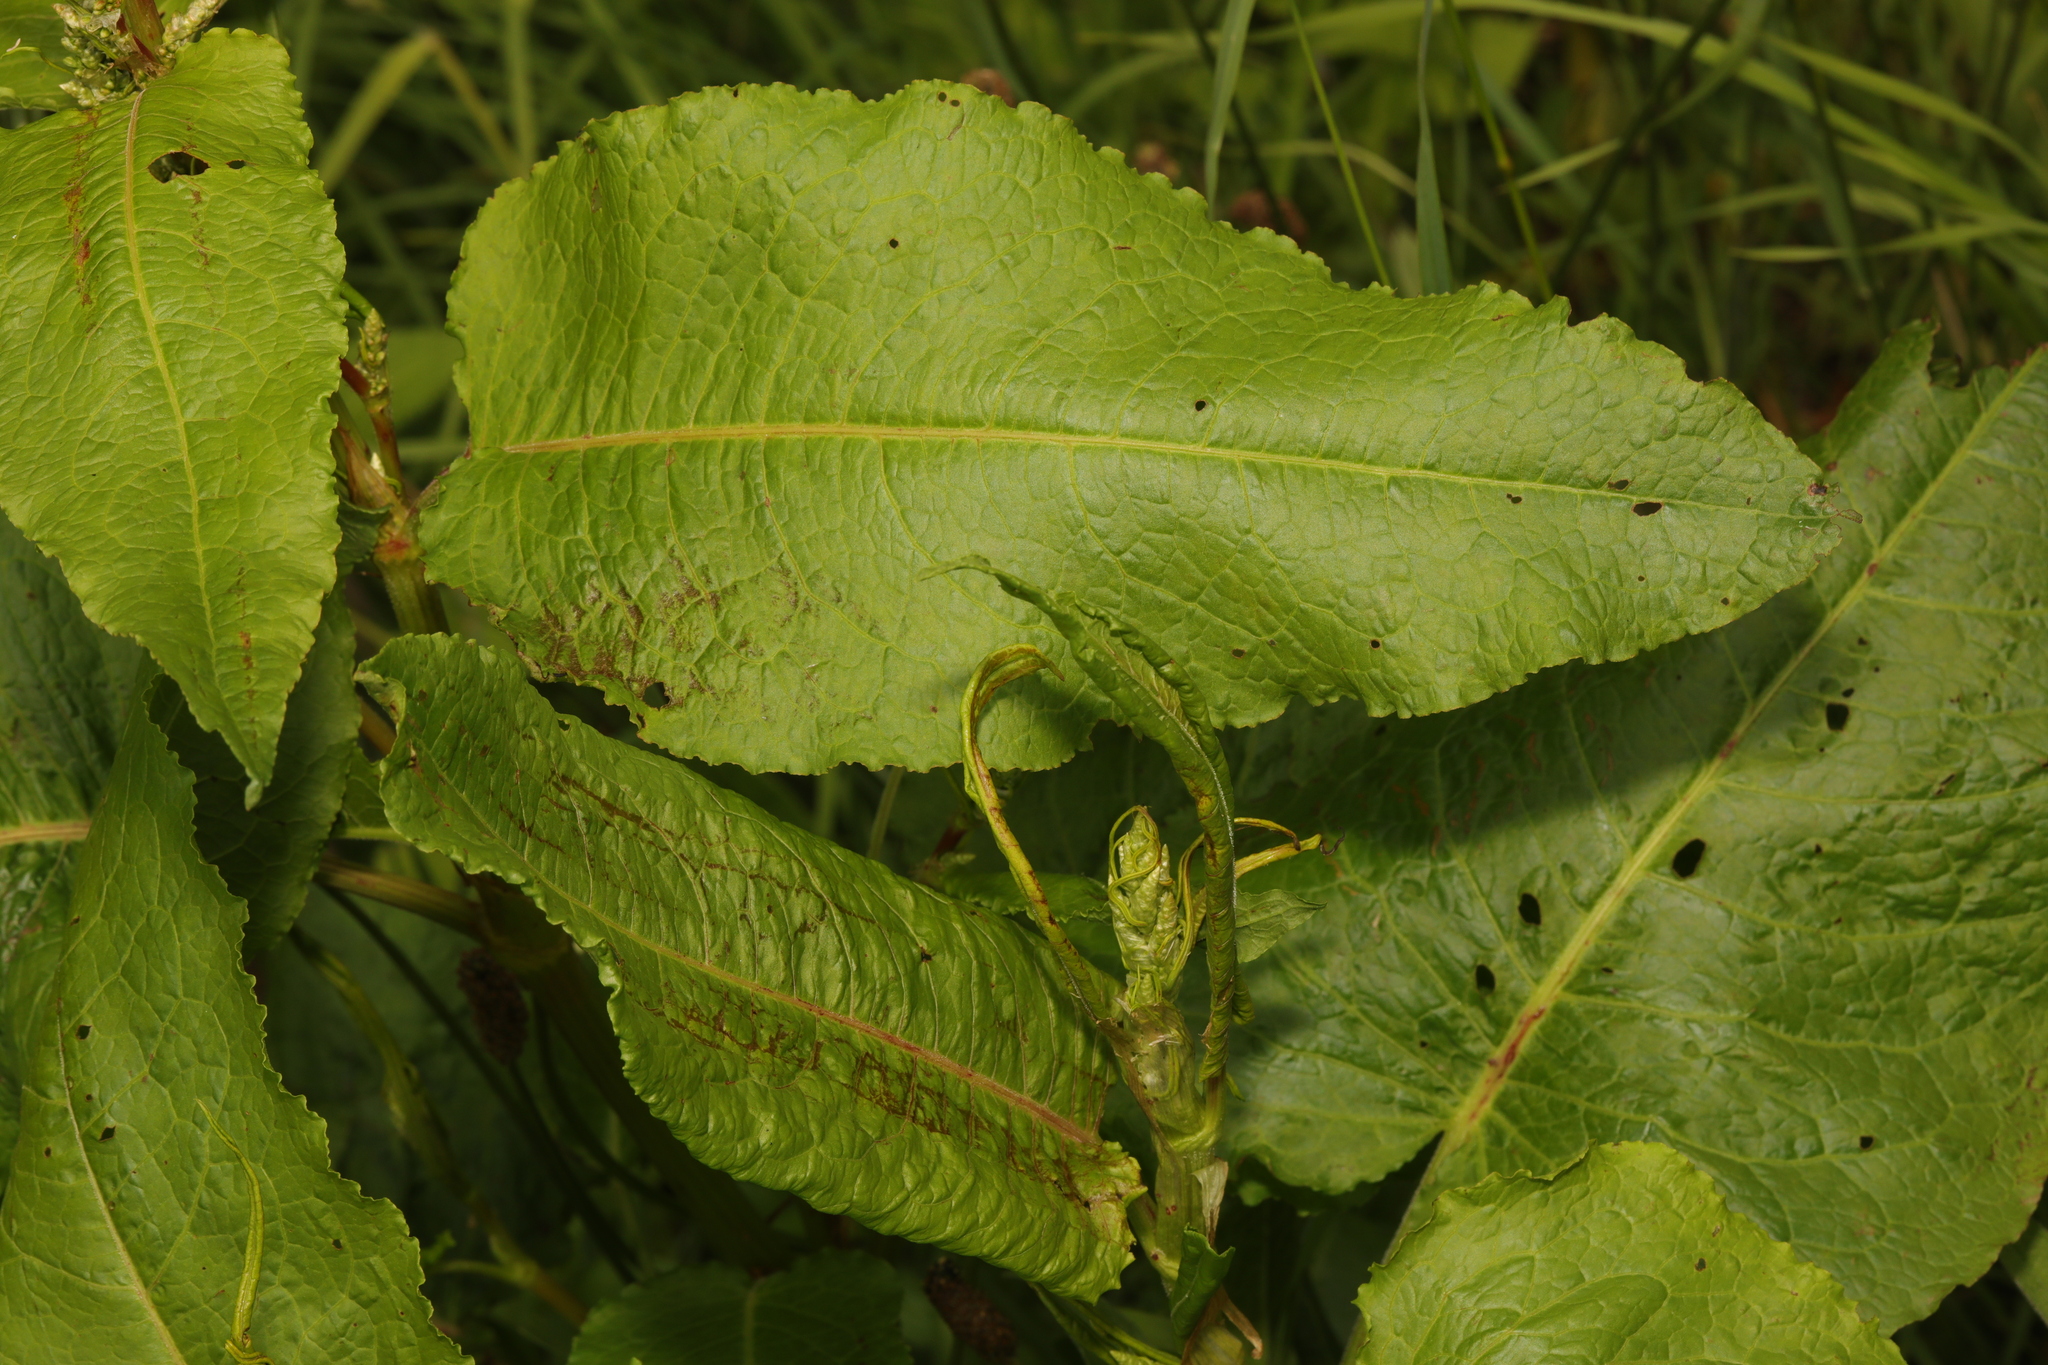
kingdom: Plantae
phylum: Tracheophyta
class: Magnoliopsida
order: Caryophyllales
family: Polygonaceae
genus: Rumex
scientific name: Rumex obtusifolius
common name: Bitter dock
